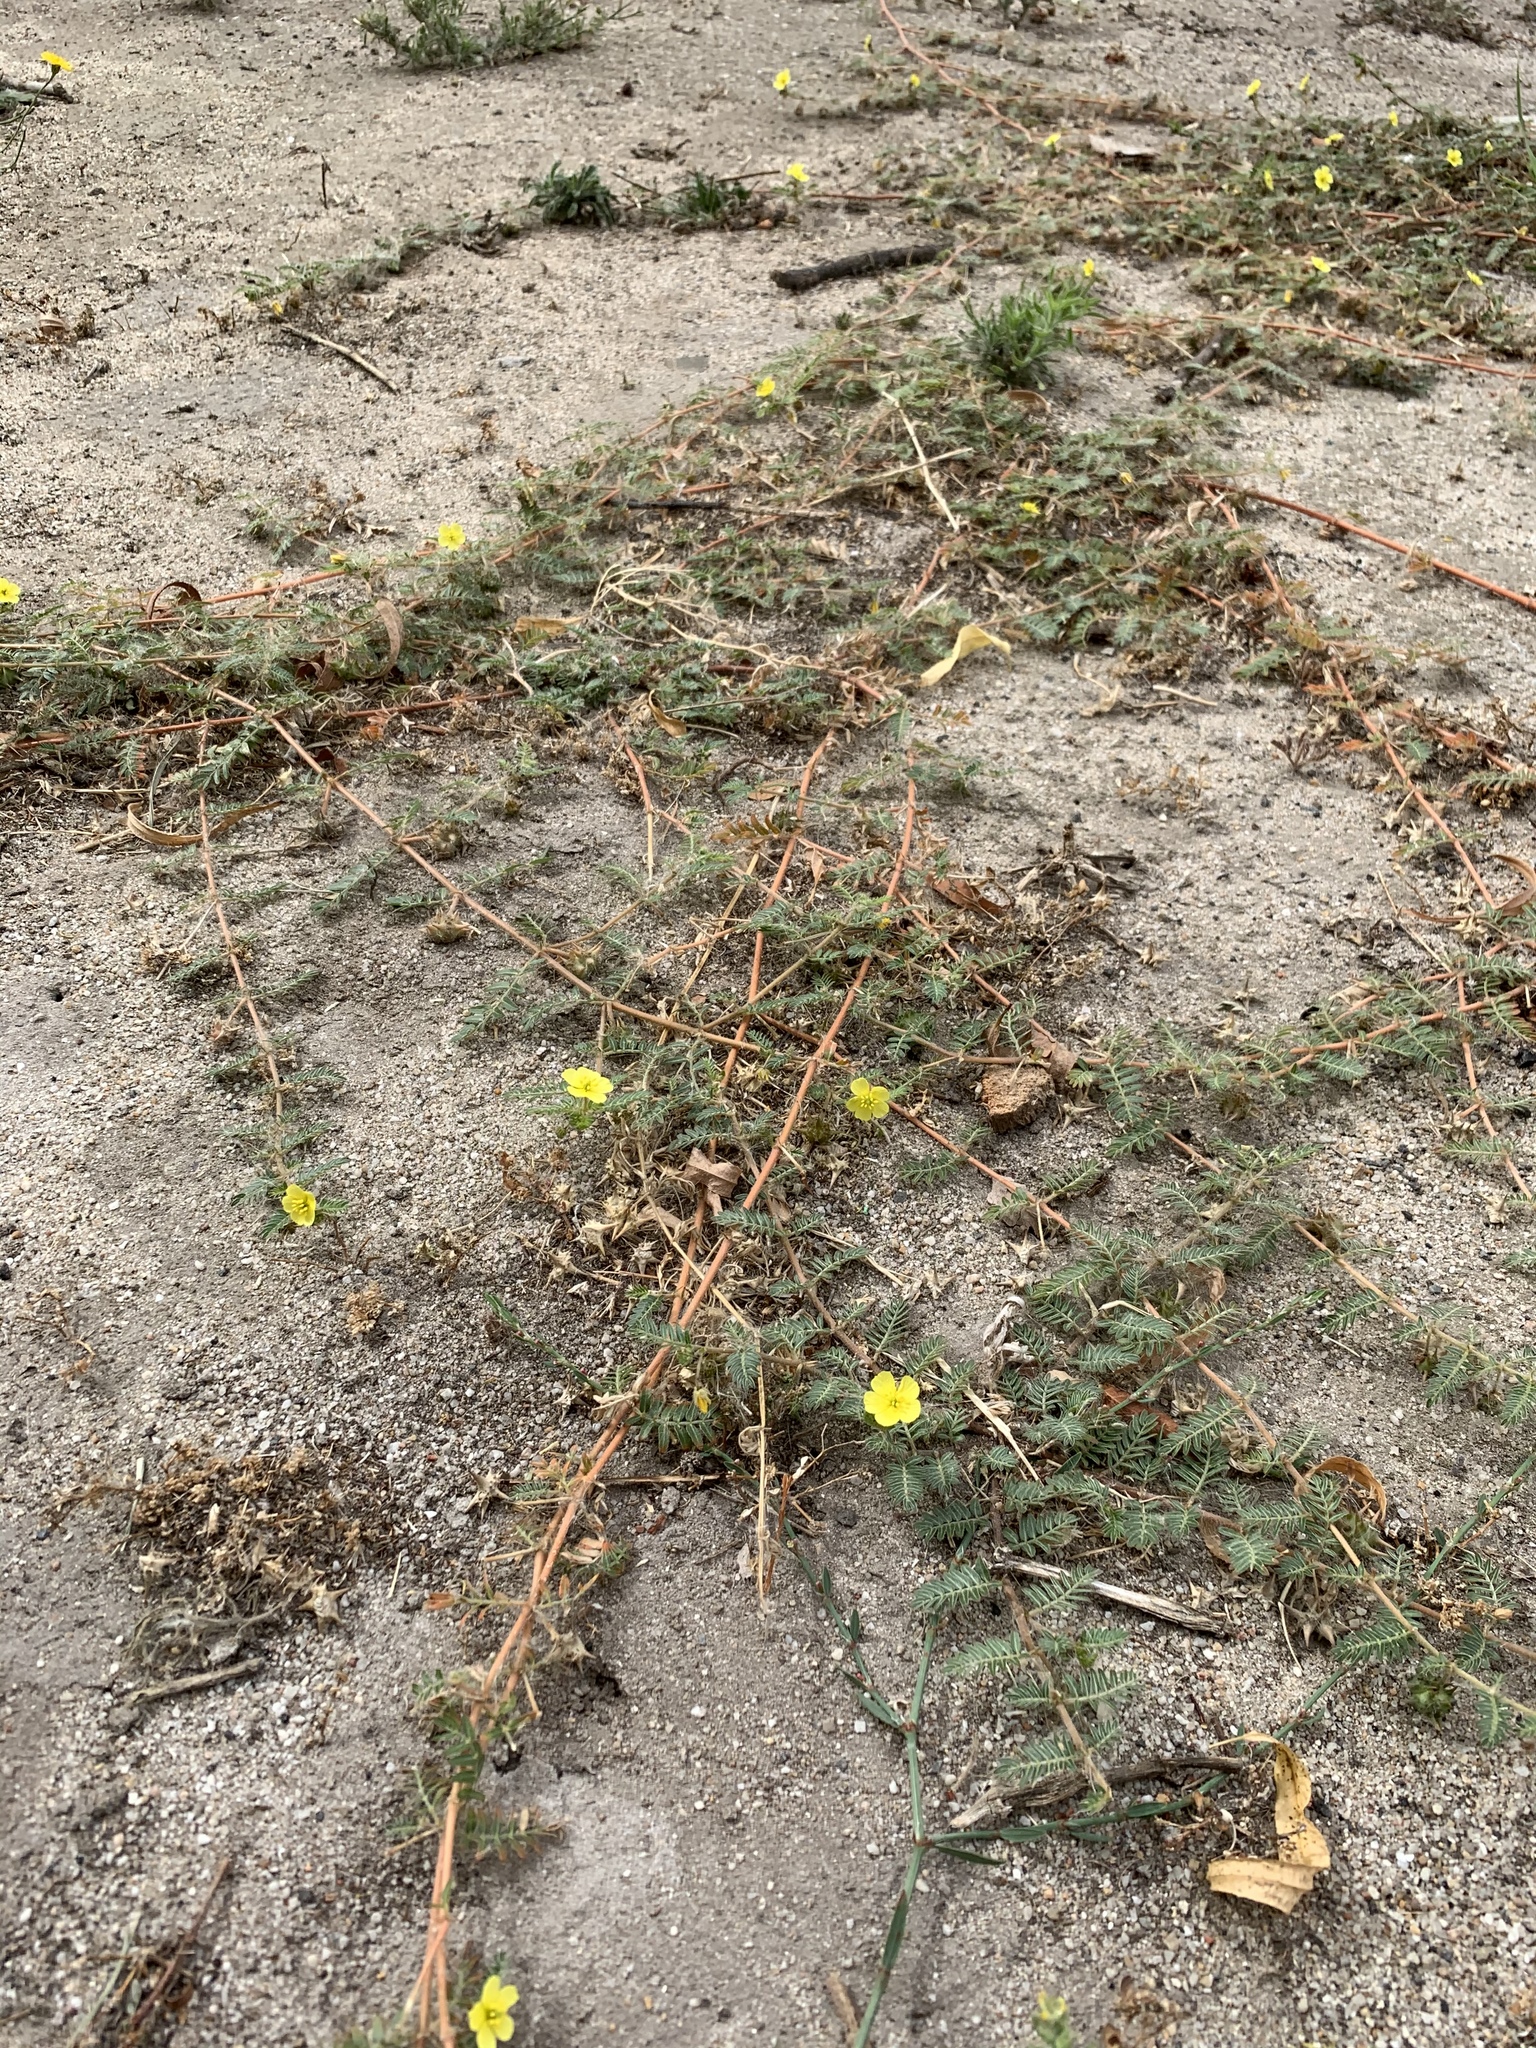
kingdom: Plantae
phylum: Tracheophyta
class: Magnoliopsida
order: Zygophyllales
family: Zygophyllaceae
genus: Tribulus
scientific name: Tribulus terrestris
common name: Puncturevine
